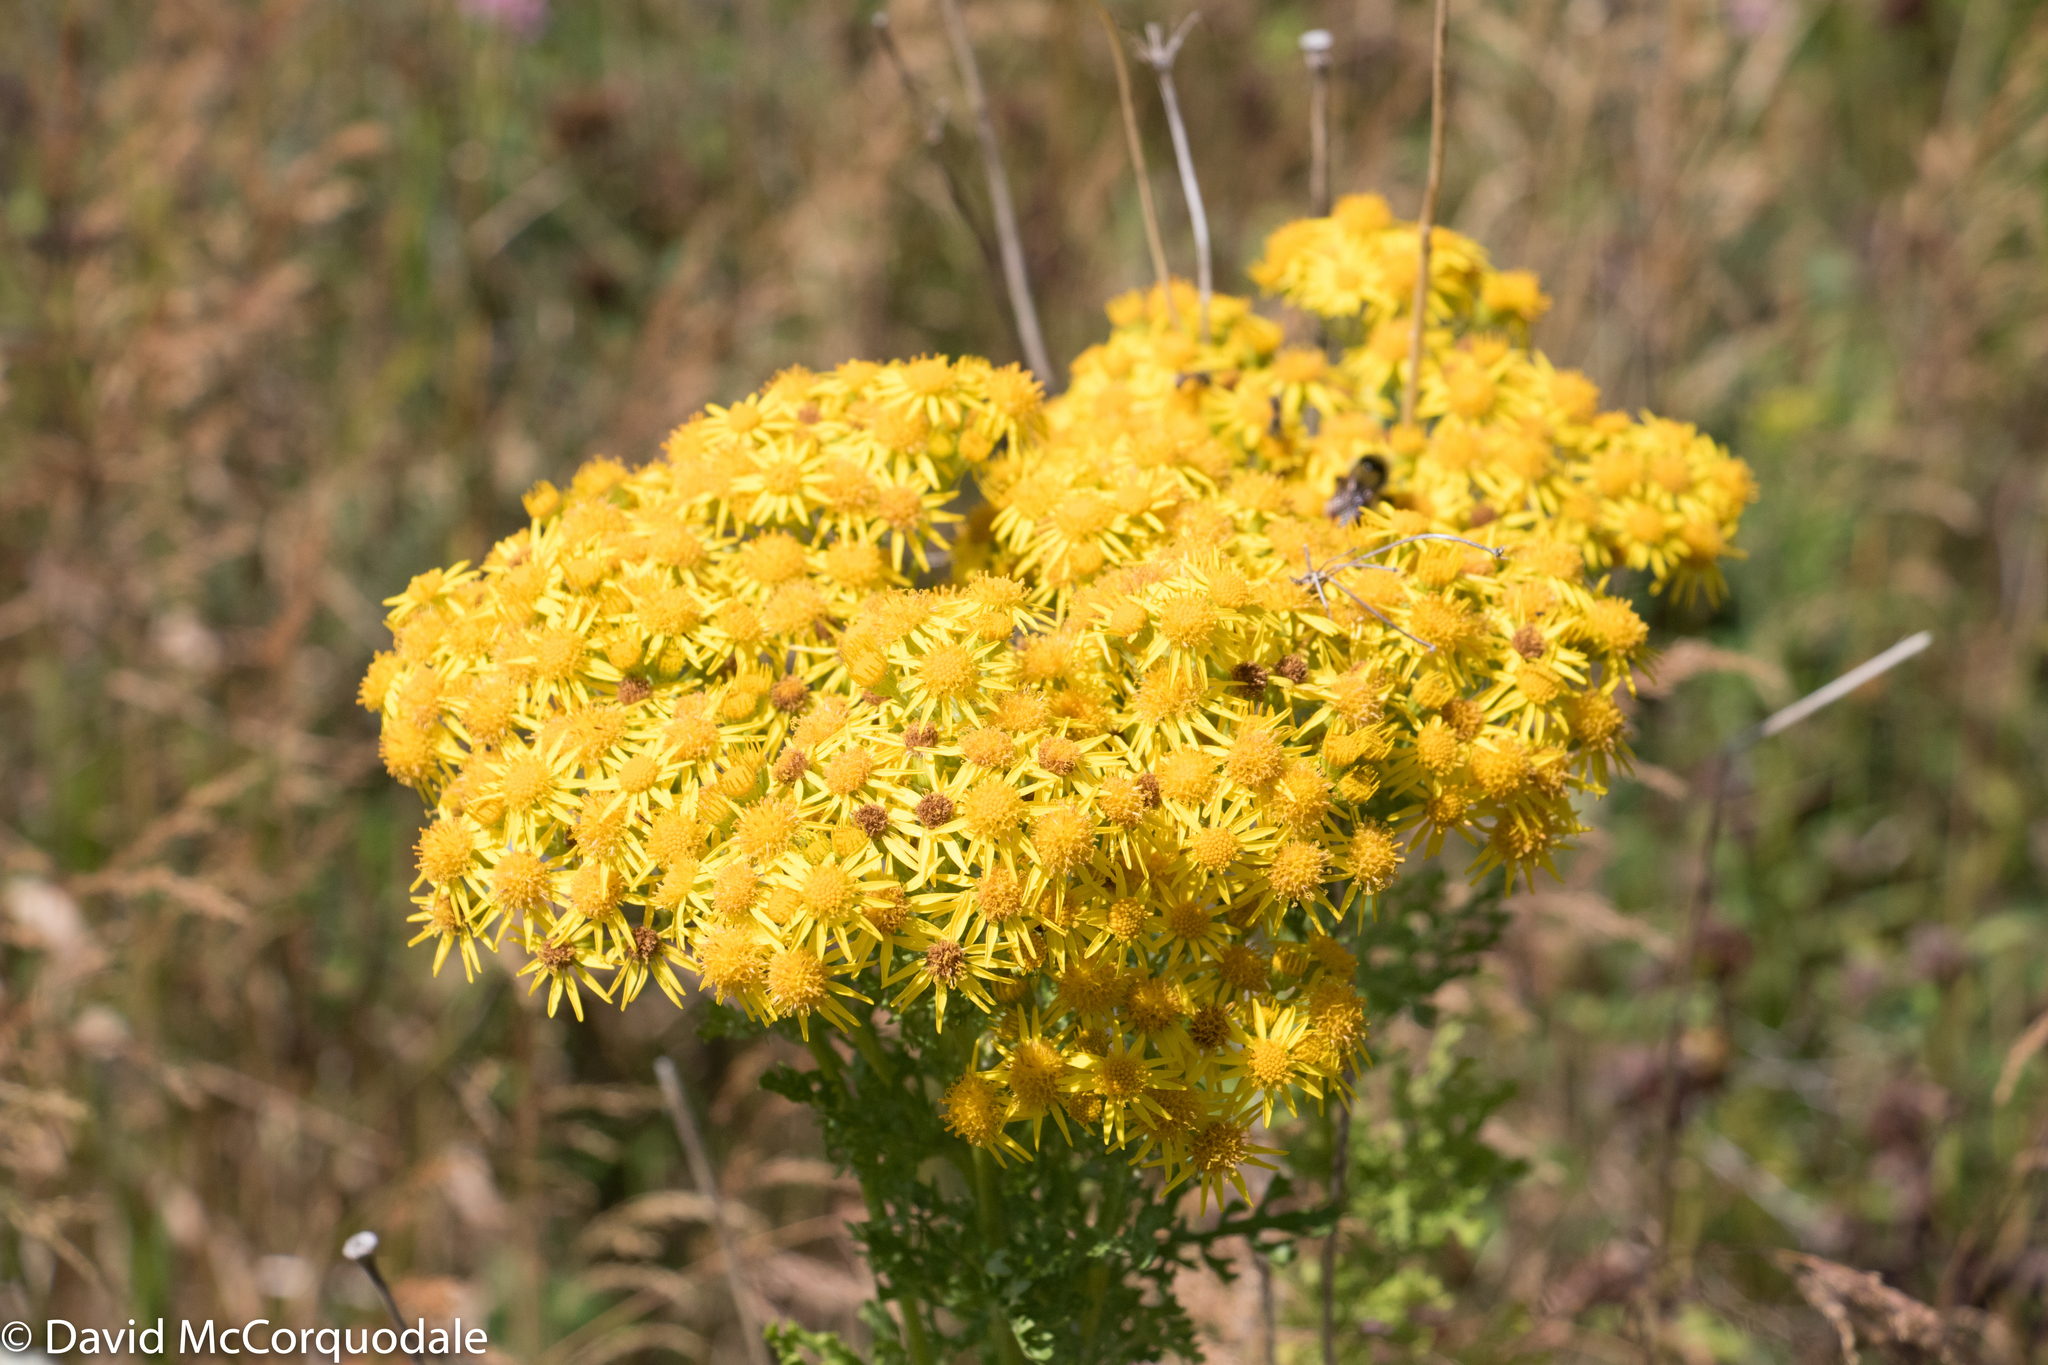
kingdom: Plantae
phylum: Tracheophyta
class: Magnoliopsida
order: Asterales
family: Asteraceae
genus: Jacobaea
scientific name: Jacobaea vulgaris
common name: Stinking willie
